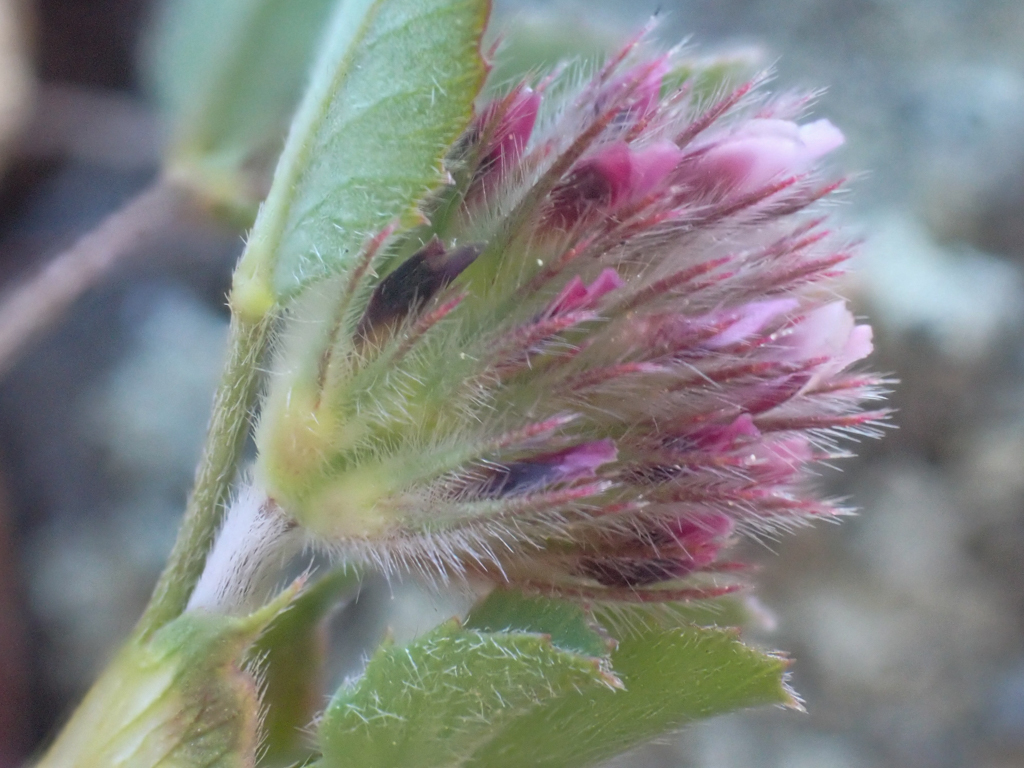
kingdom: Plantae
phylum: Tracheophyta
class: Magnoliopsida
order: Fabales
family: Fabaceae
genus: Trifolium
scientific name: Trifolium macraei
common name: Macrae's clover
